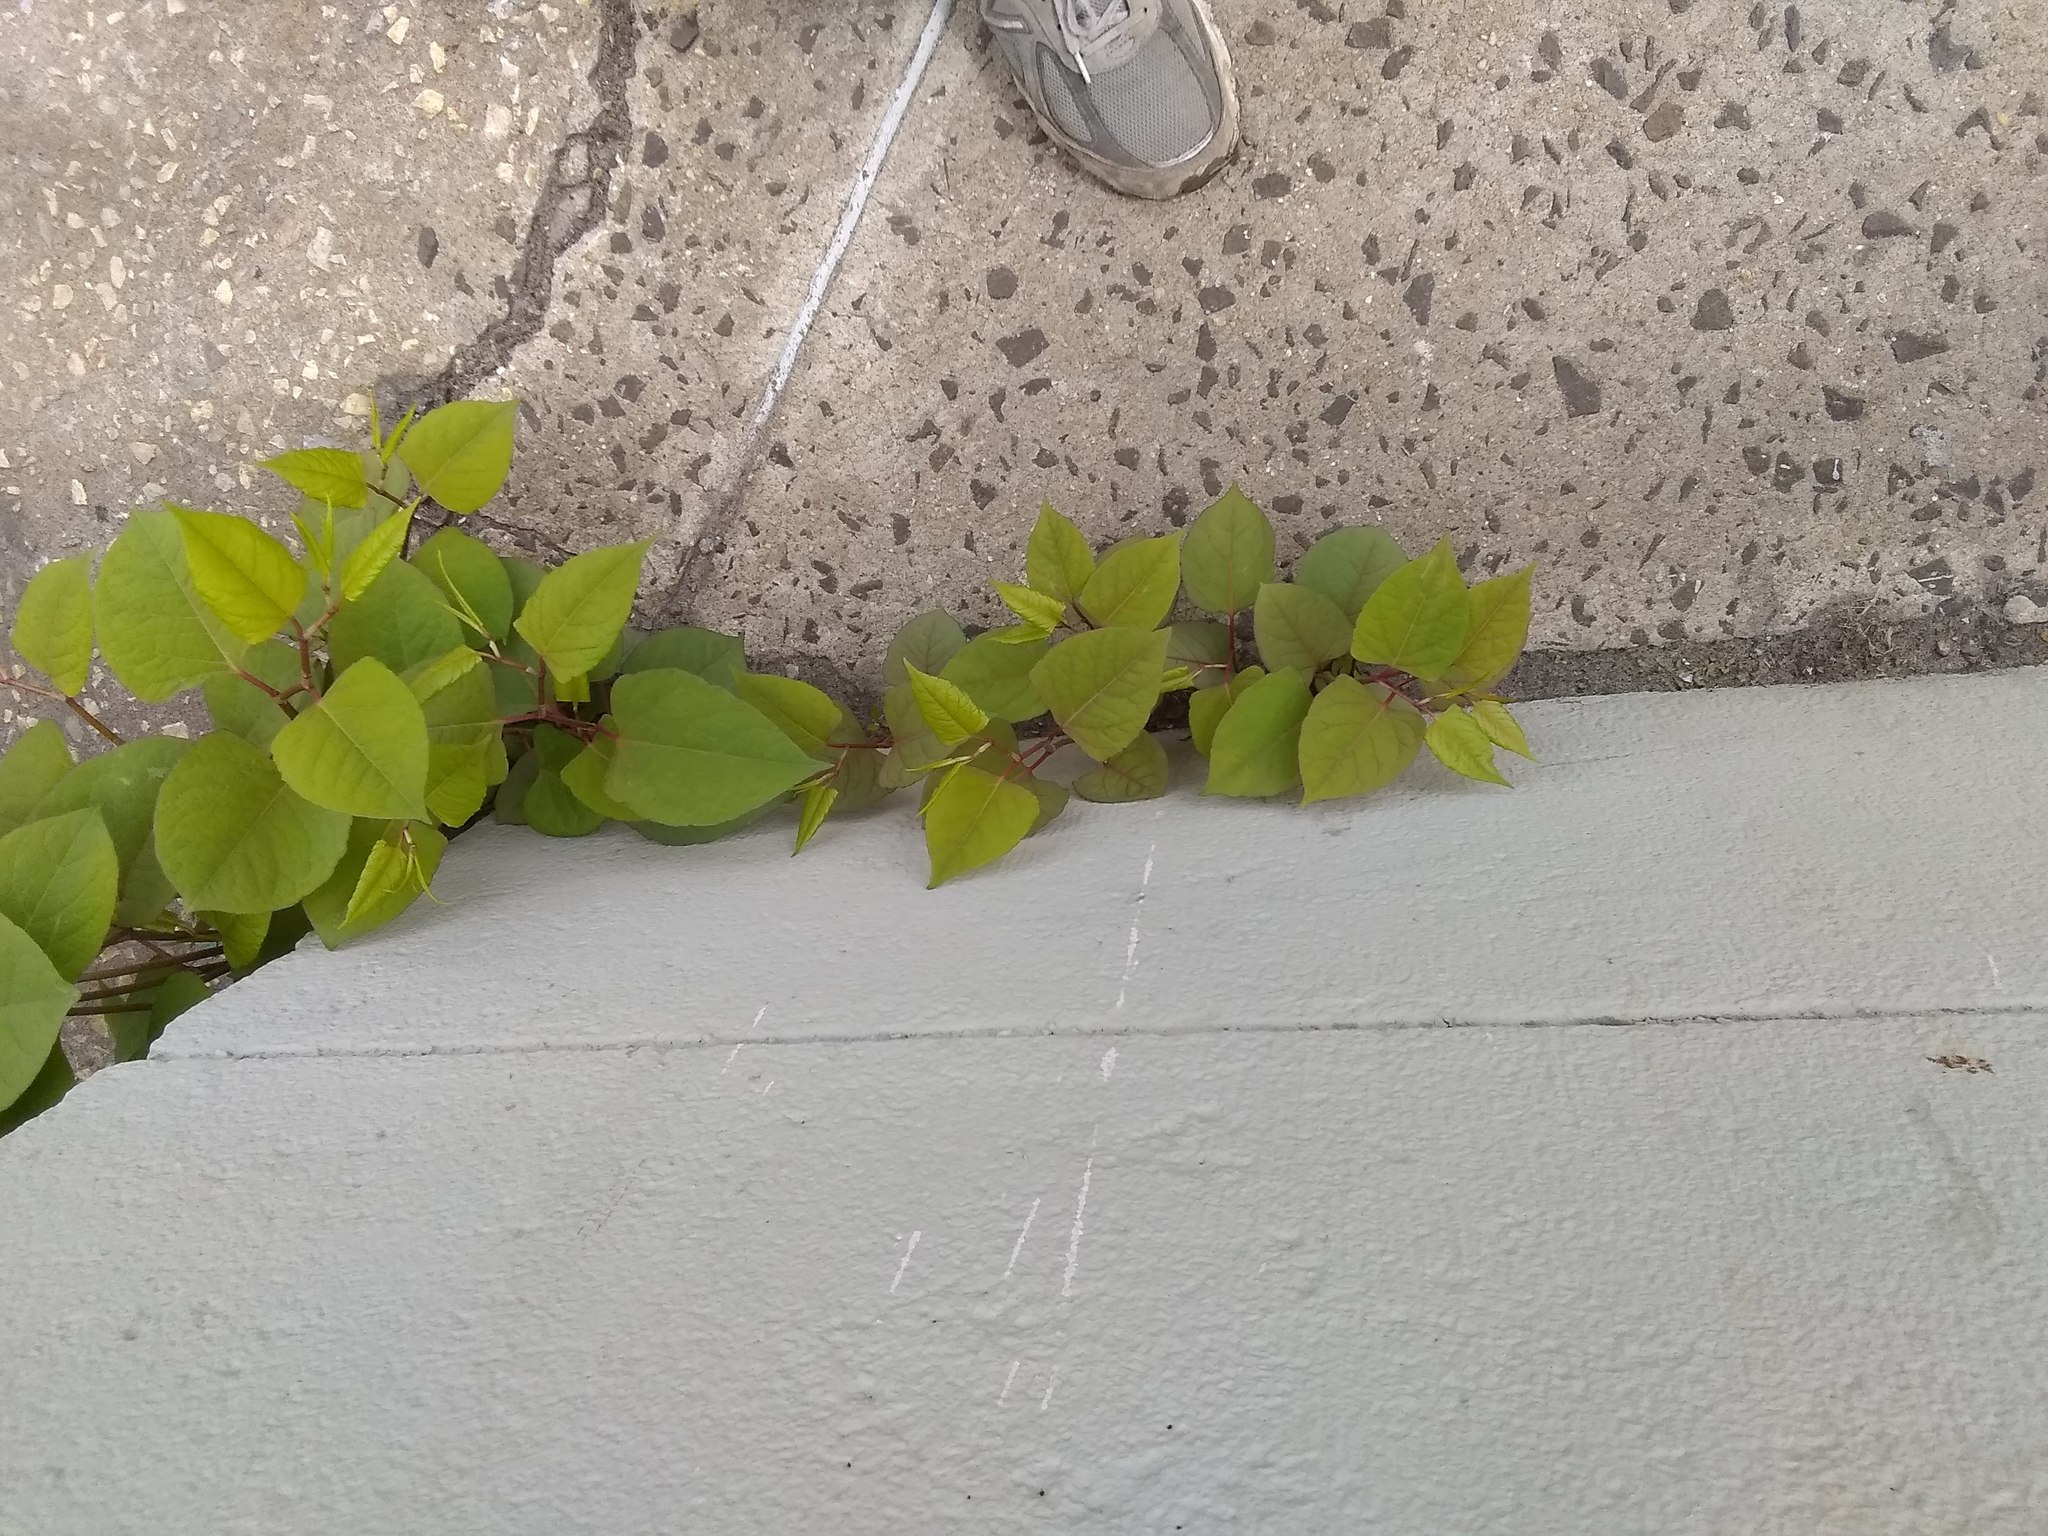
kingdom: Plantae
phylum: Tracheophyta
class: Magnoliopsida
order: Caryophyllales
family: Polygonaceae
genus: Reynoutria
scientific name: Reynoutria japonica
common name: Japanese knotweed
